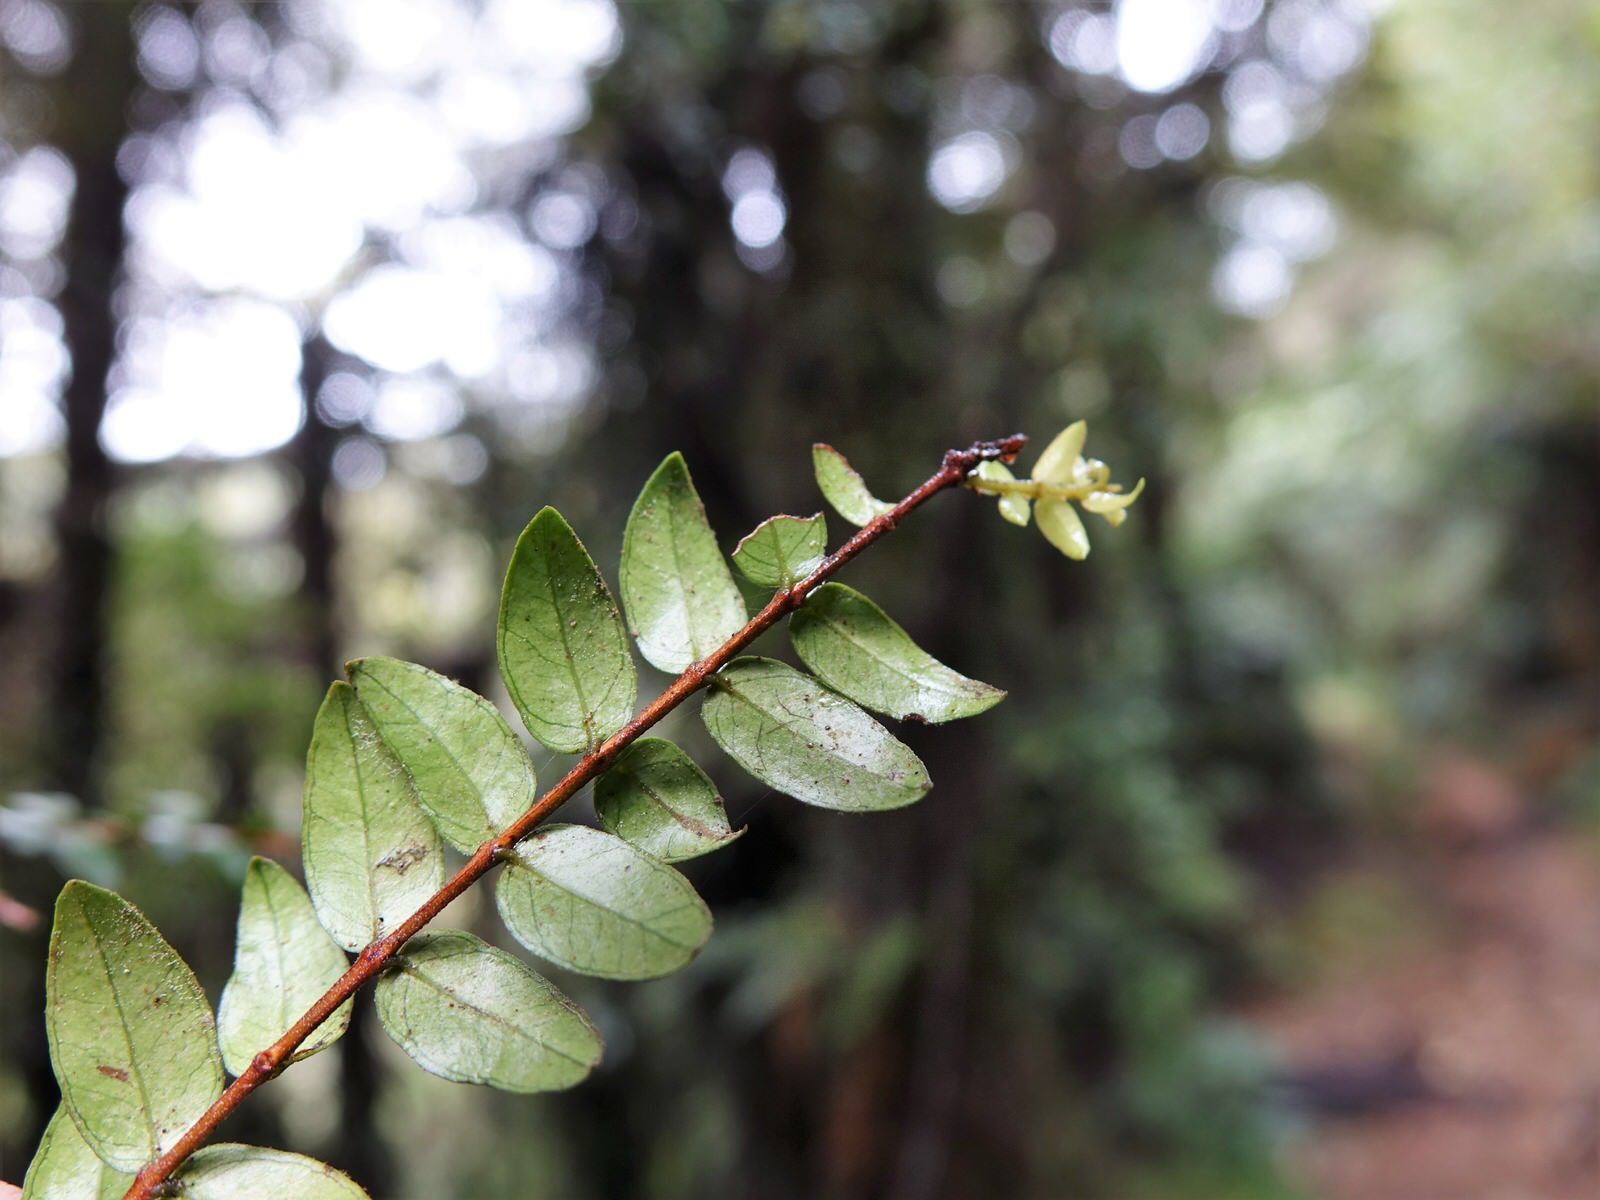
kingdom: Plantae
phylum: Tracheophyta
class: Magnoliopsida
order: Myrtales
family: Myrtaceae
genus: Metrosideros
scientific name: Metrosideros diffusa
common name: Small ratavine
